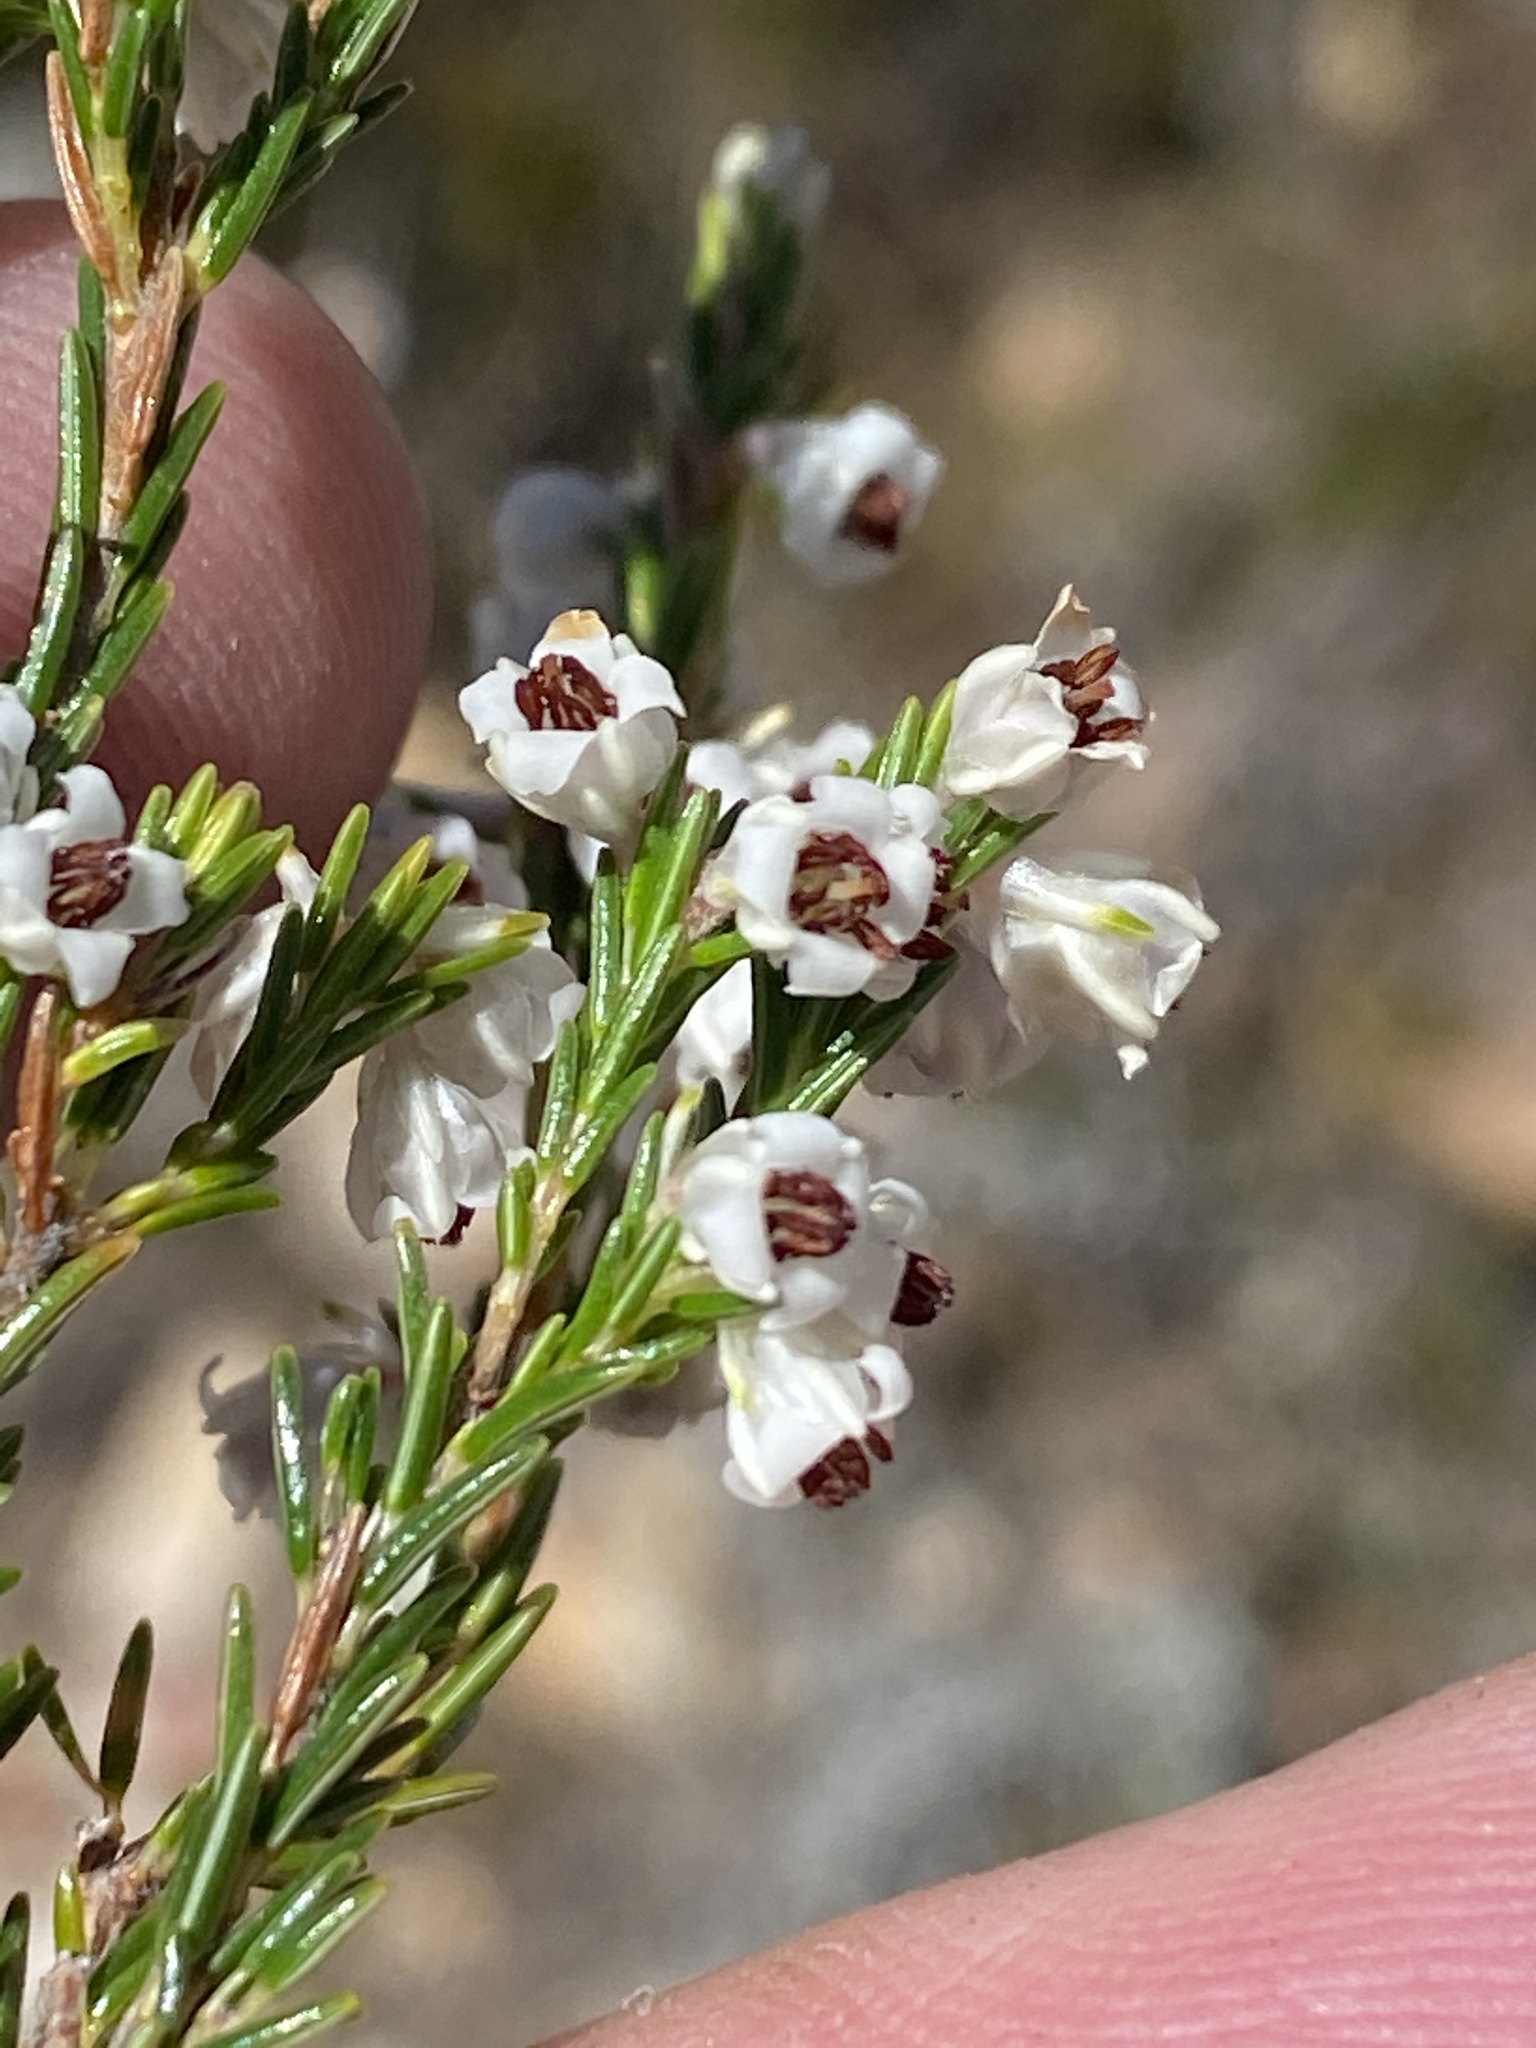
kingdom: Plantae
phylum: Tracheophyta
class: Magnoliopsida
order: Ericales
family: Ericaceae
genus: Erica
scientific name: Erica calycina
